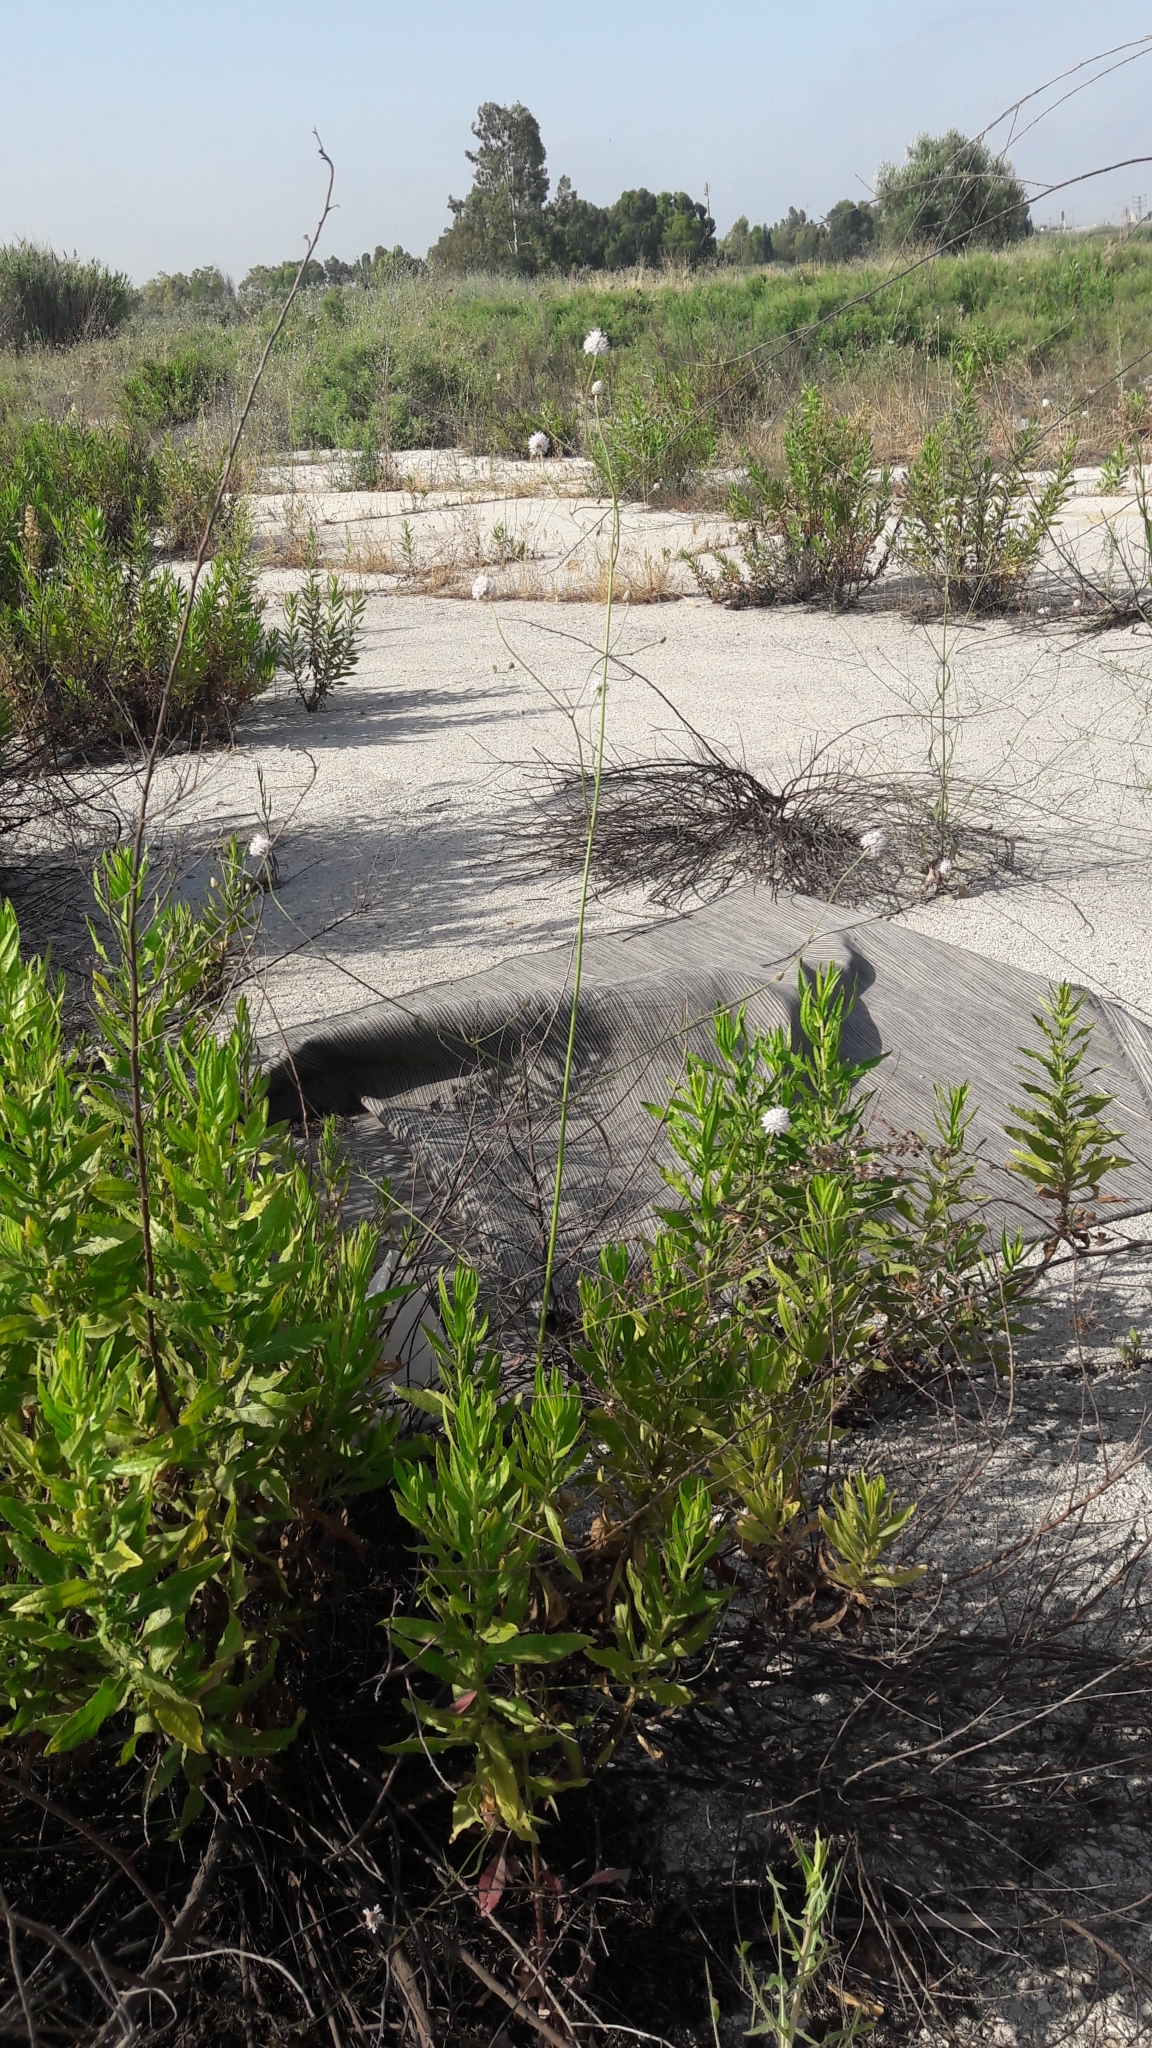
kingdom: Plantae
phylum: Tracheophyta
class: Magnoliopsida
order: Dipsacales
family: Caprifoliaceae
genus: Cephalaria
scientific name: Cephalaria joppensis
